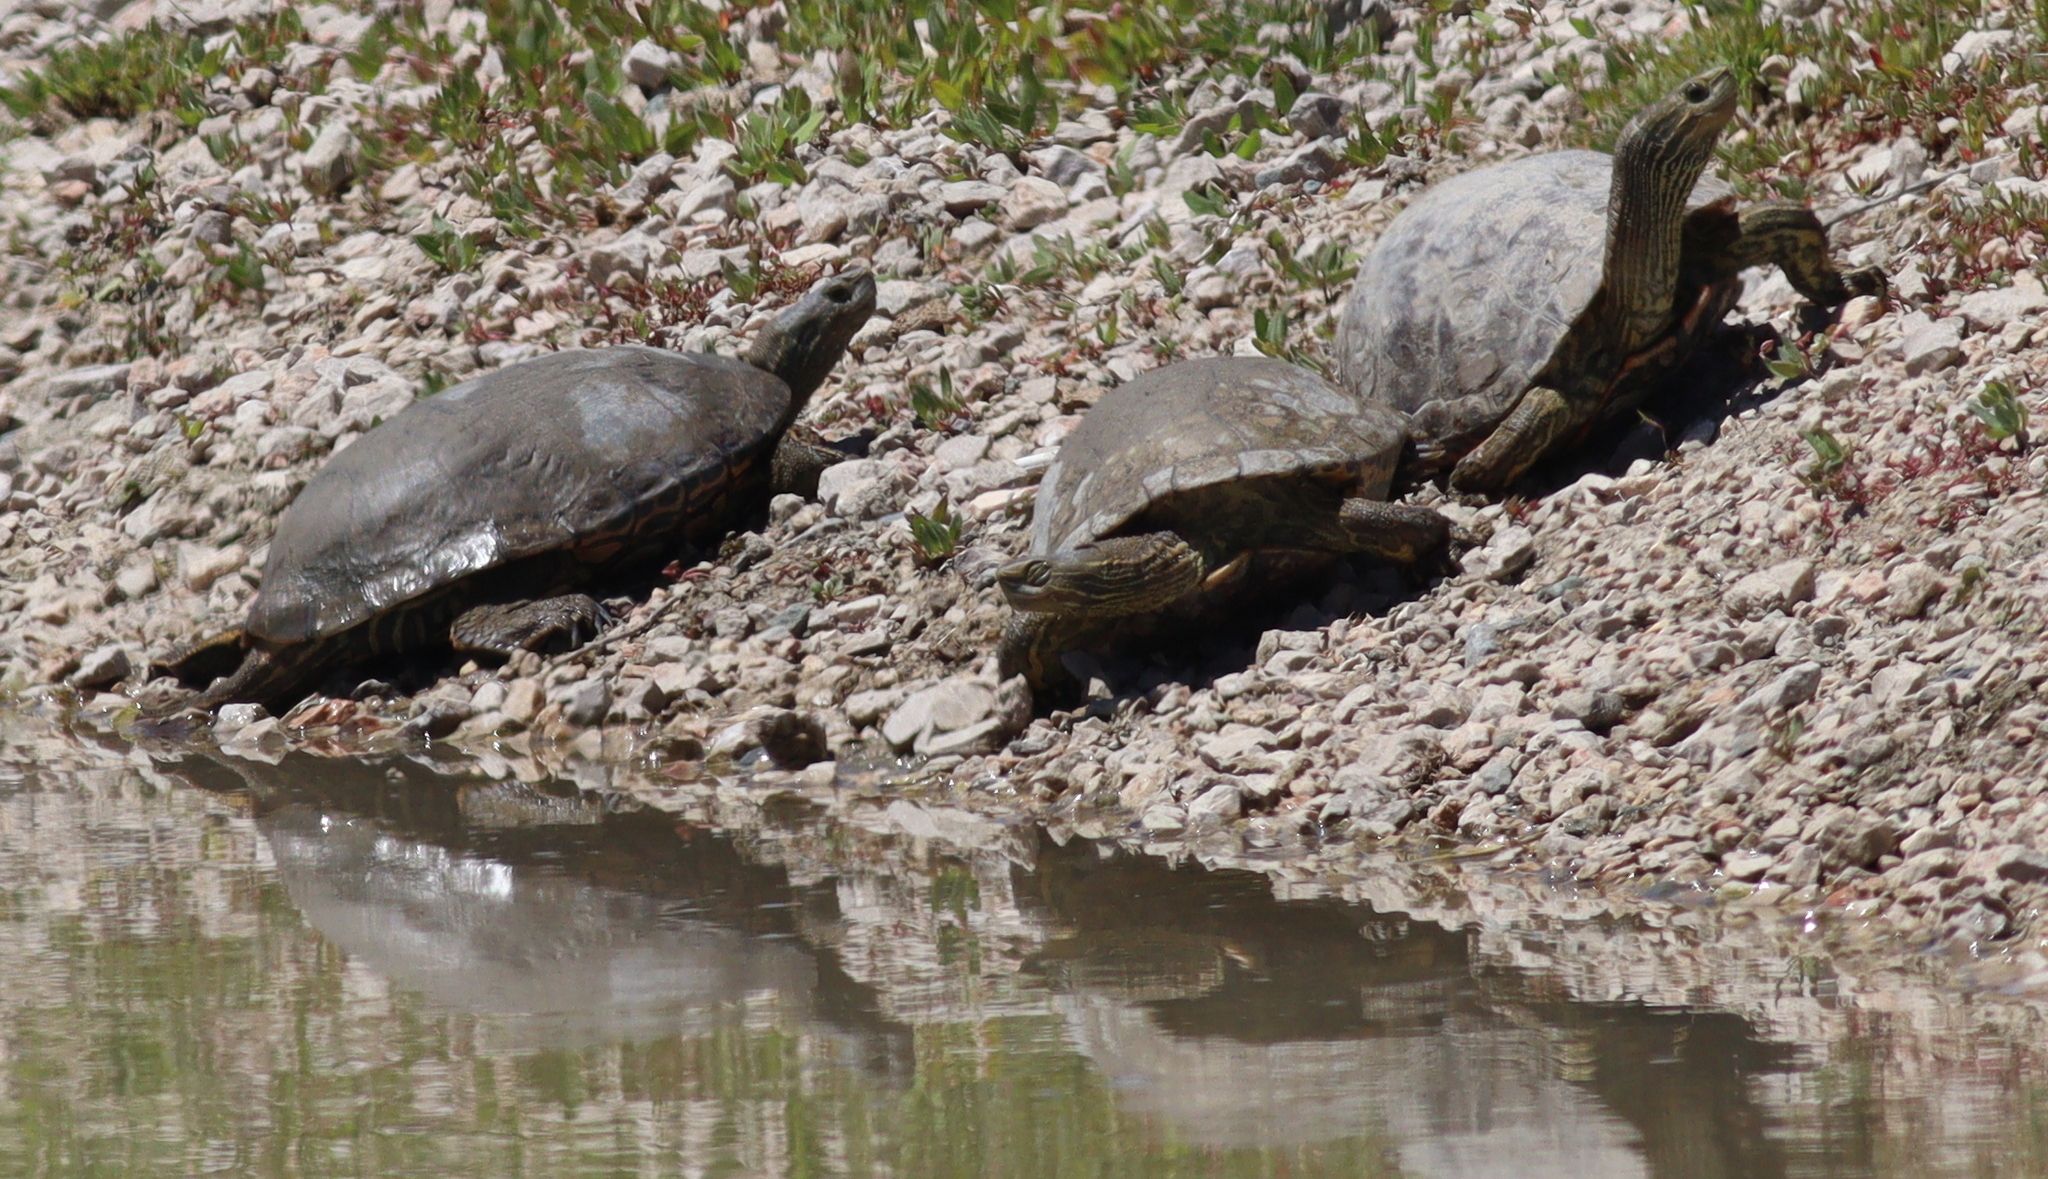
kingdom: Animalia
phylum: Chordata
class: Testudines
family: Geoemydidae
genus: Mauremys
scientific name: Mauremys caspica
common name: Caspian turtle
